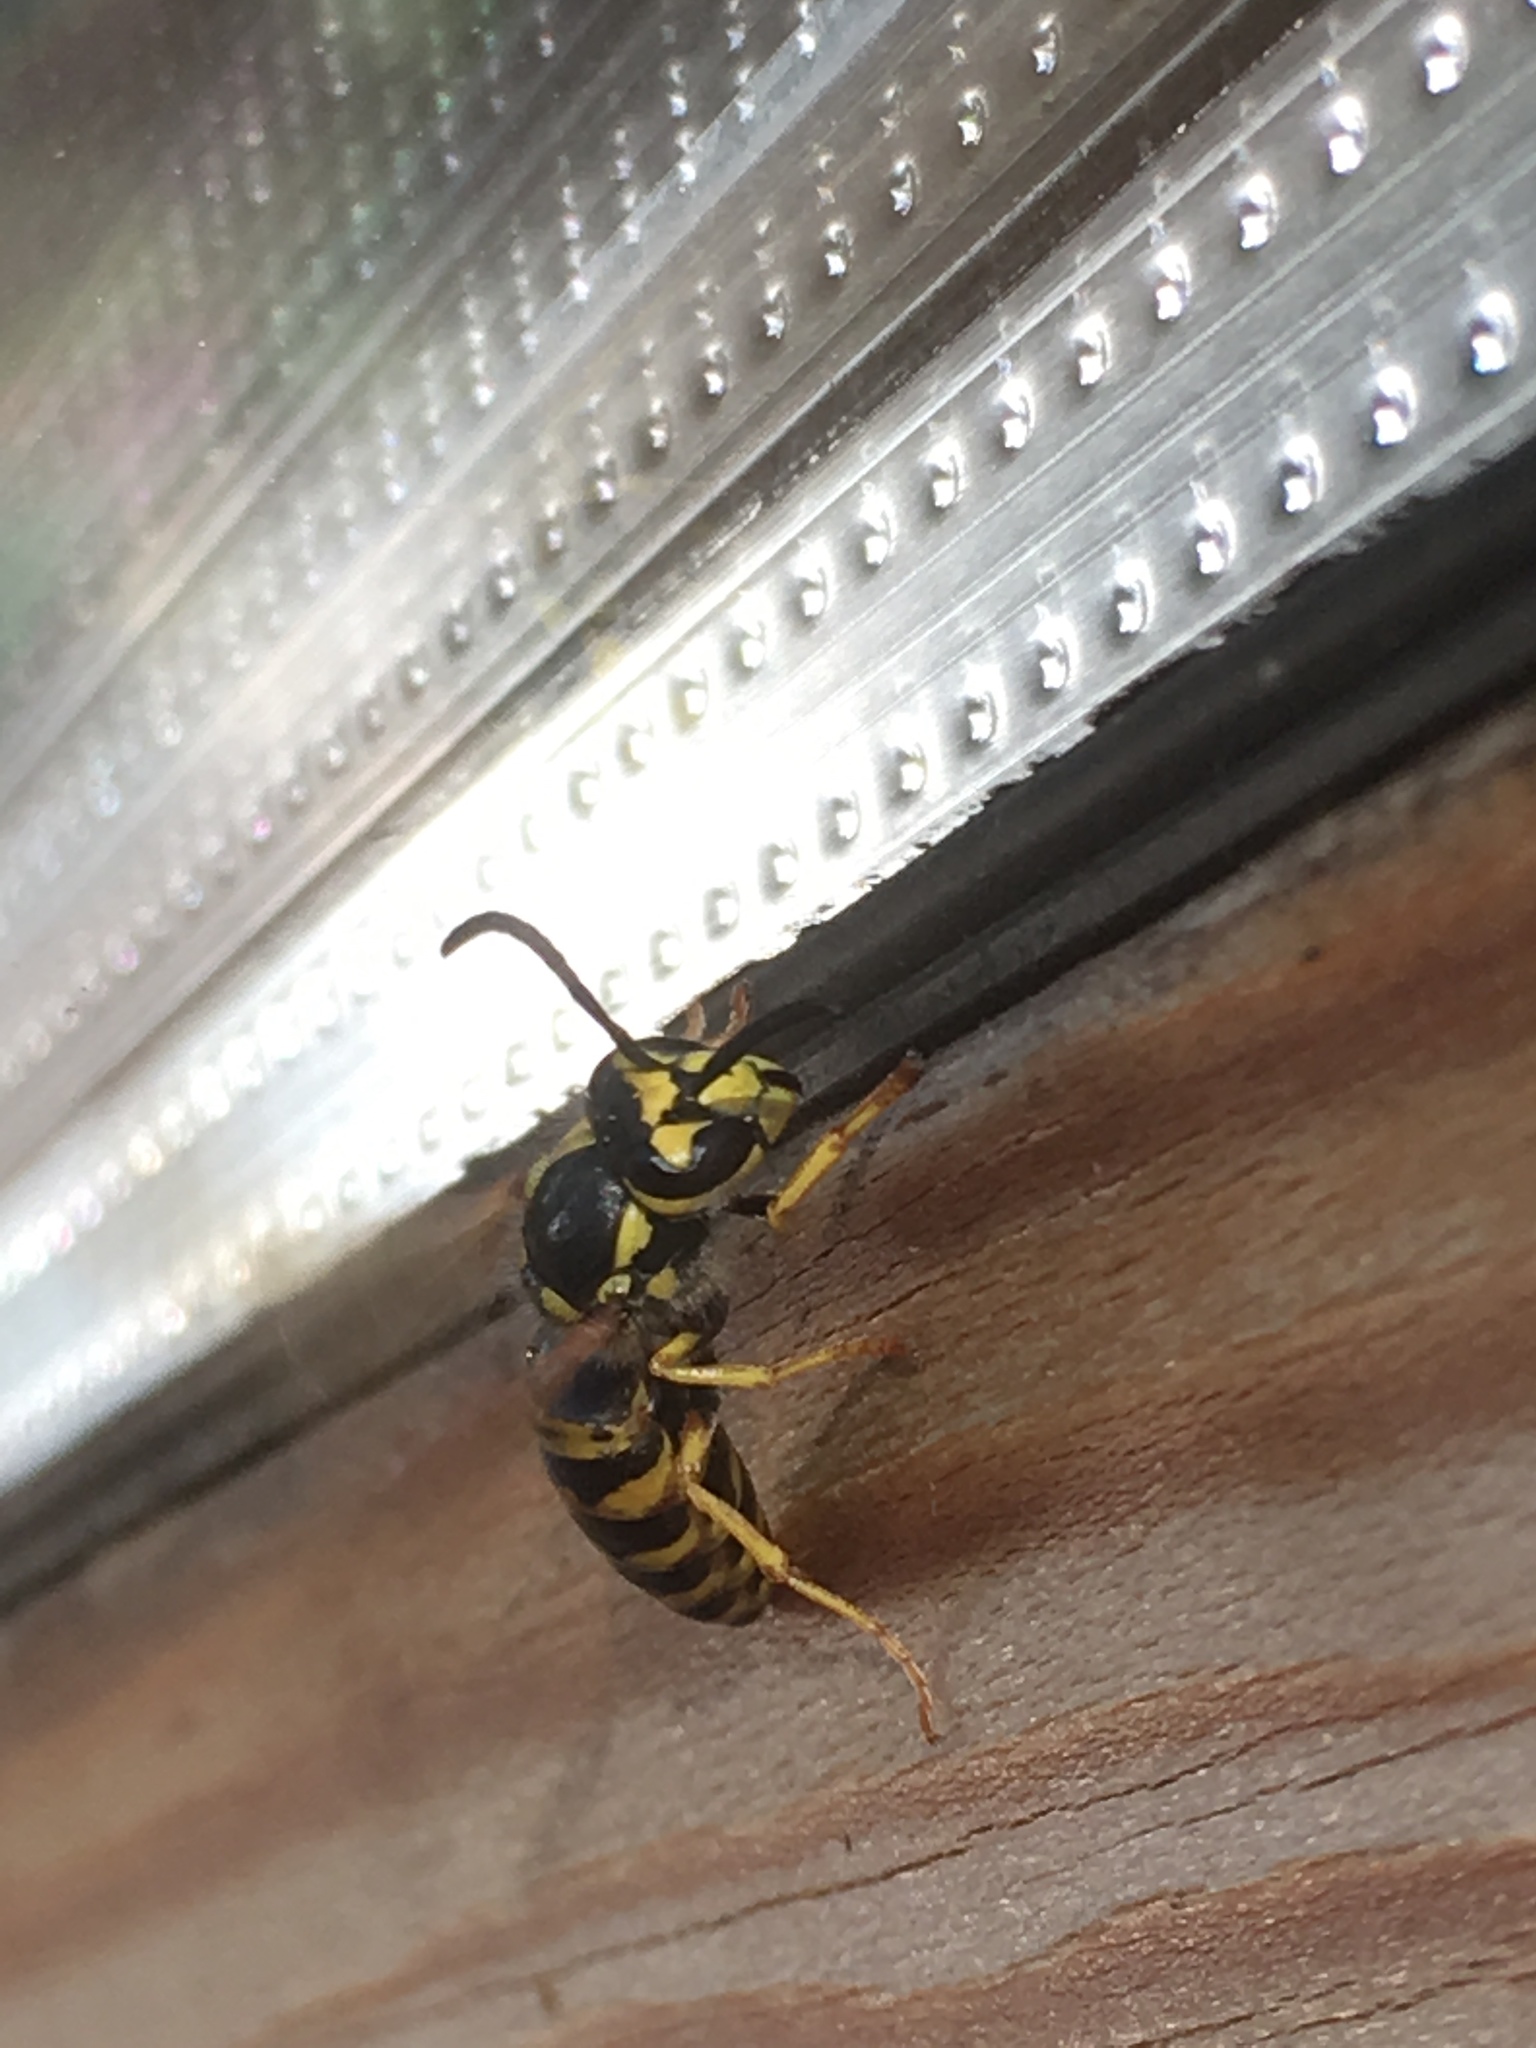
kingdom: Animalia
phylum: Arthropoda
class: Insecta
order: Hymenoptera
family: Vespidae
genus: Vespula
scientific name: Vespula germanica
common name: German wasp
